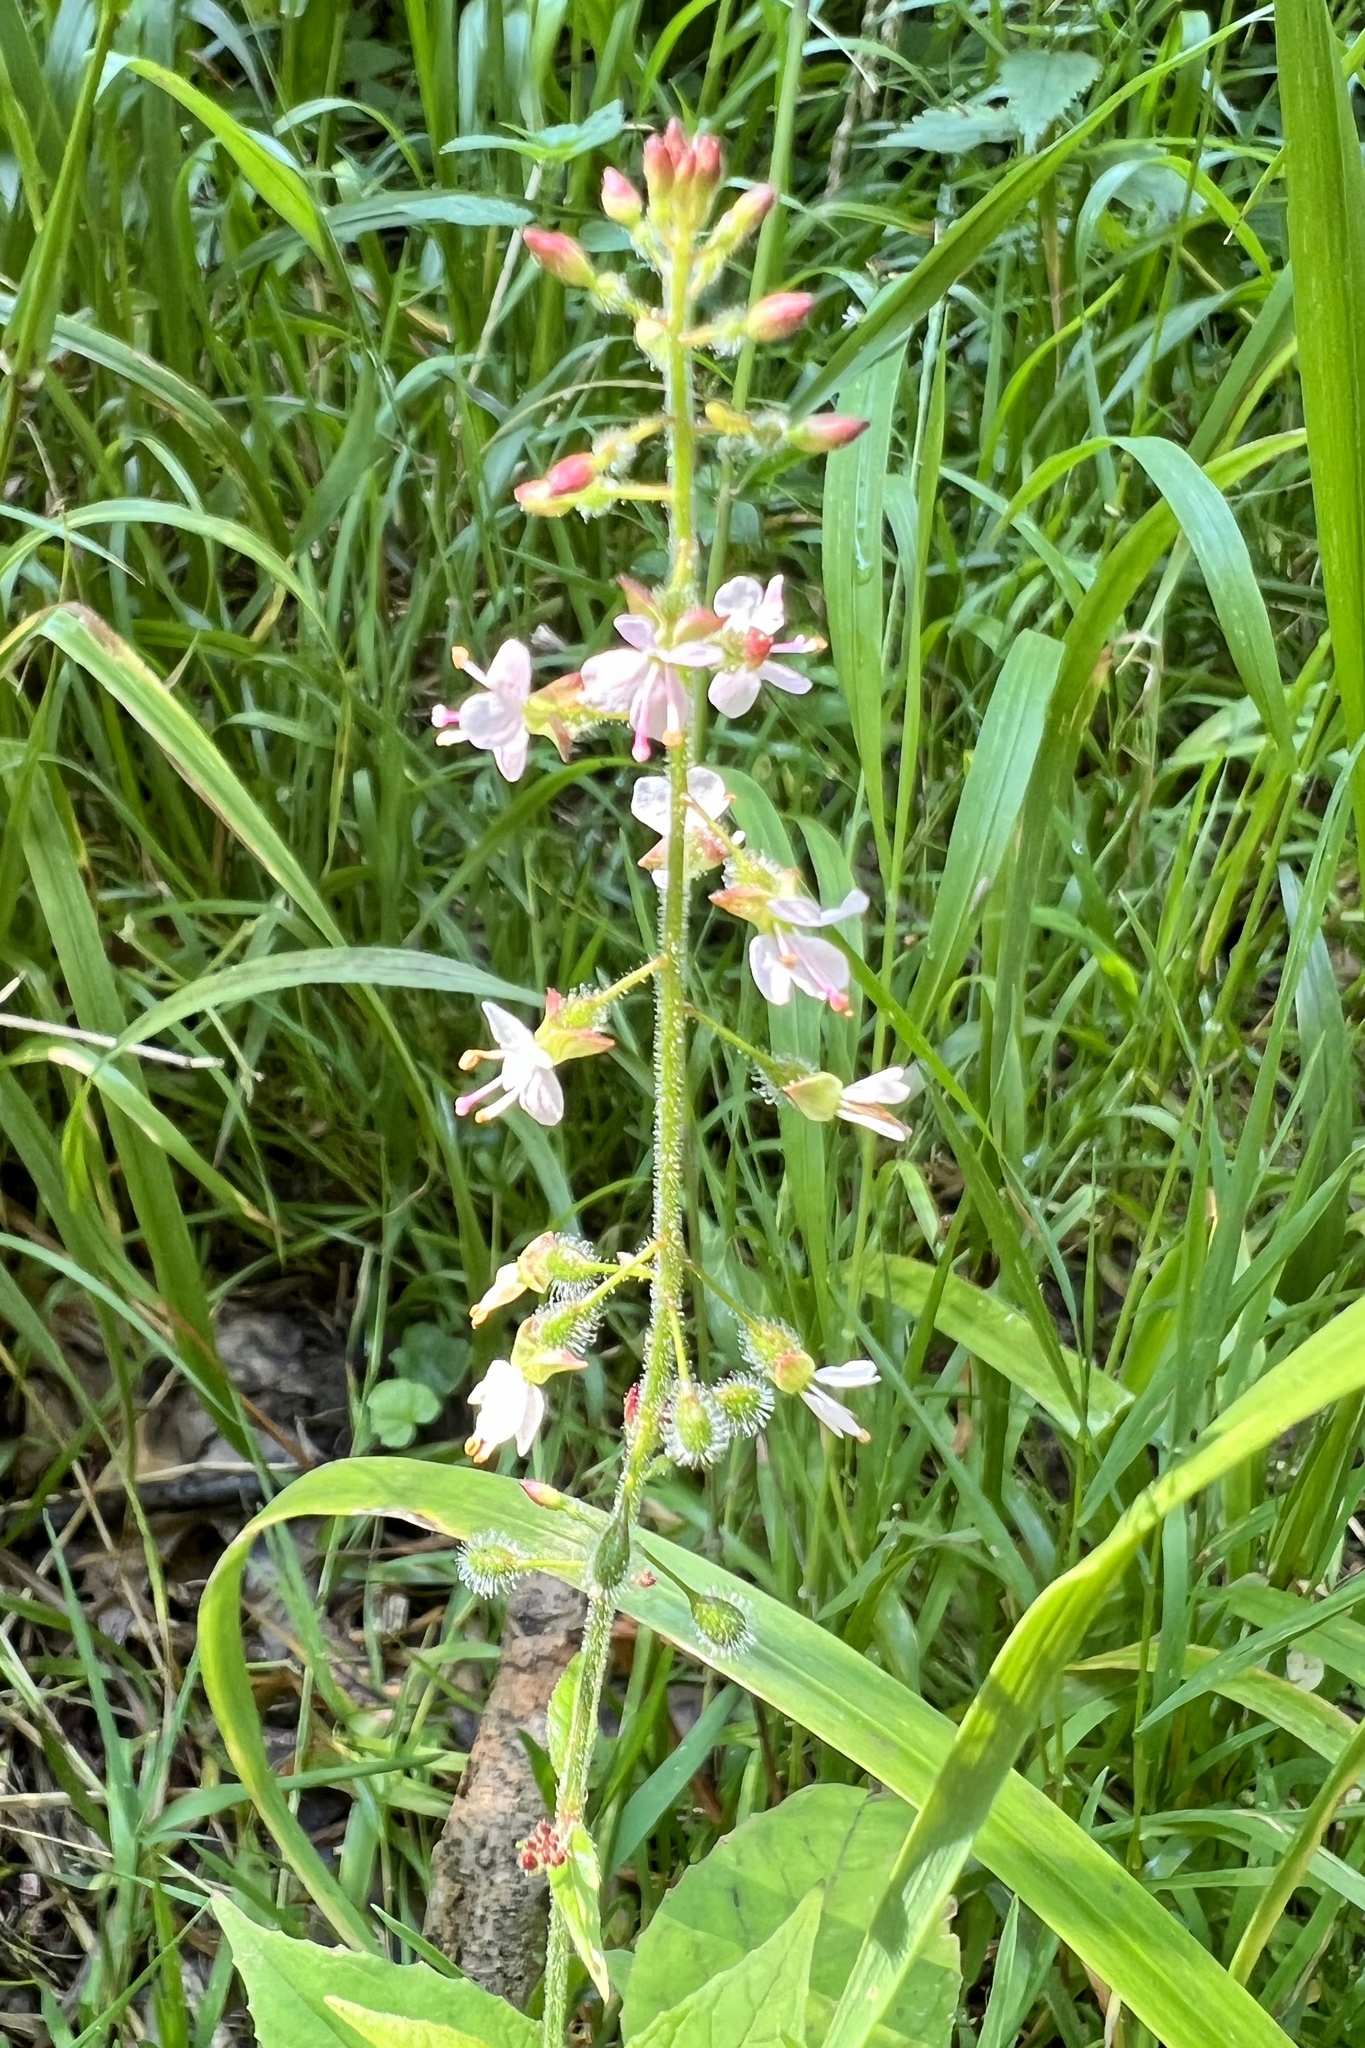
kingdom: Plantae
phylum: Tracheophyta
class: Magnoliopsida
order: Myrtales
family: Onagraceae
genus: Circaea
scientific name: Circaea lutetiana
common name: Enchanter's-nightshade
